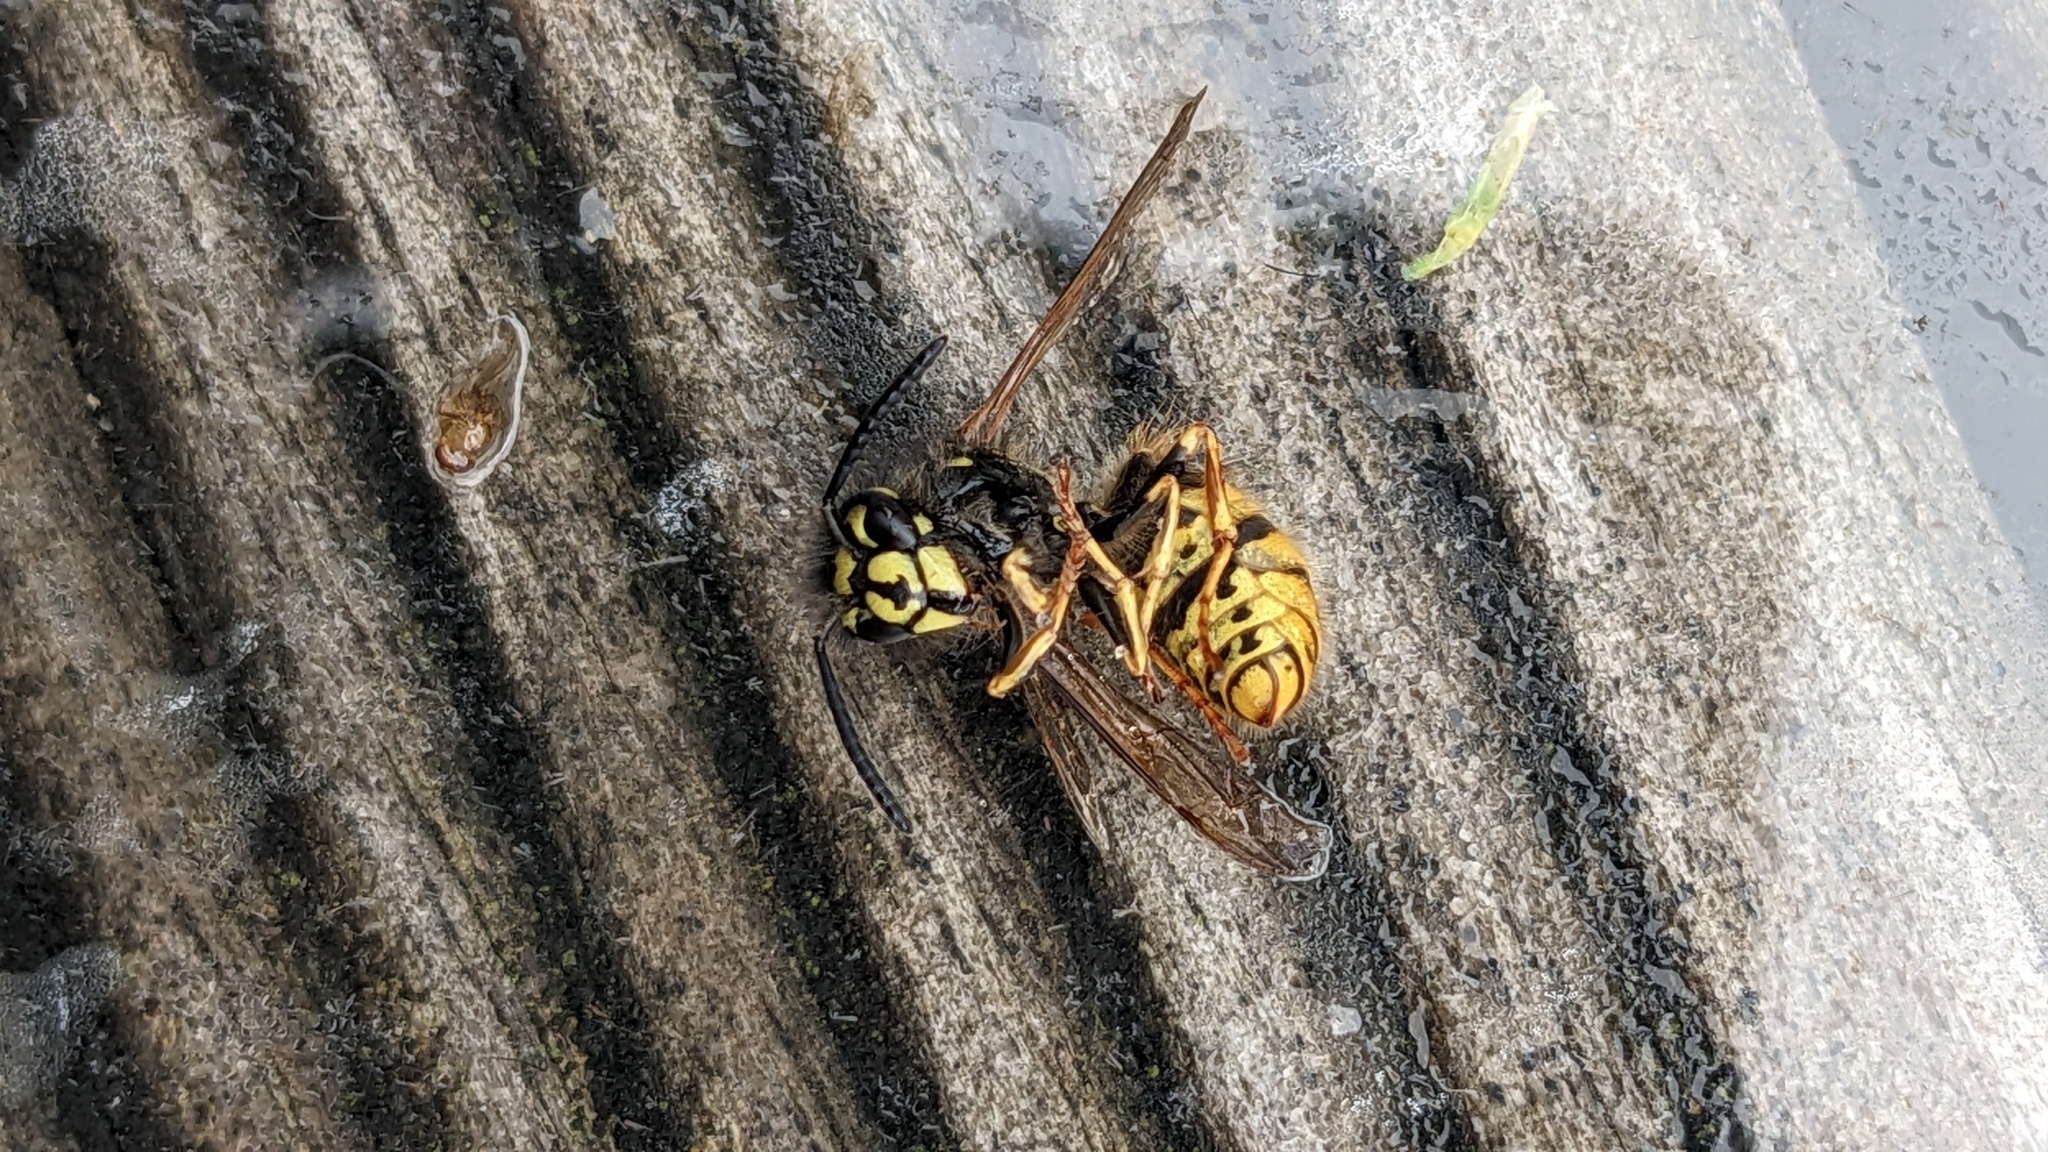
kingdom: Animalia
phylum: Arthropoda
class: Insecta
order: Hymenoptera
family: Vespidae
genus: Vespula
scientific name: Vespula vulgaris
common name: Common wasp
